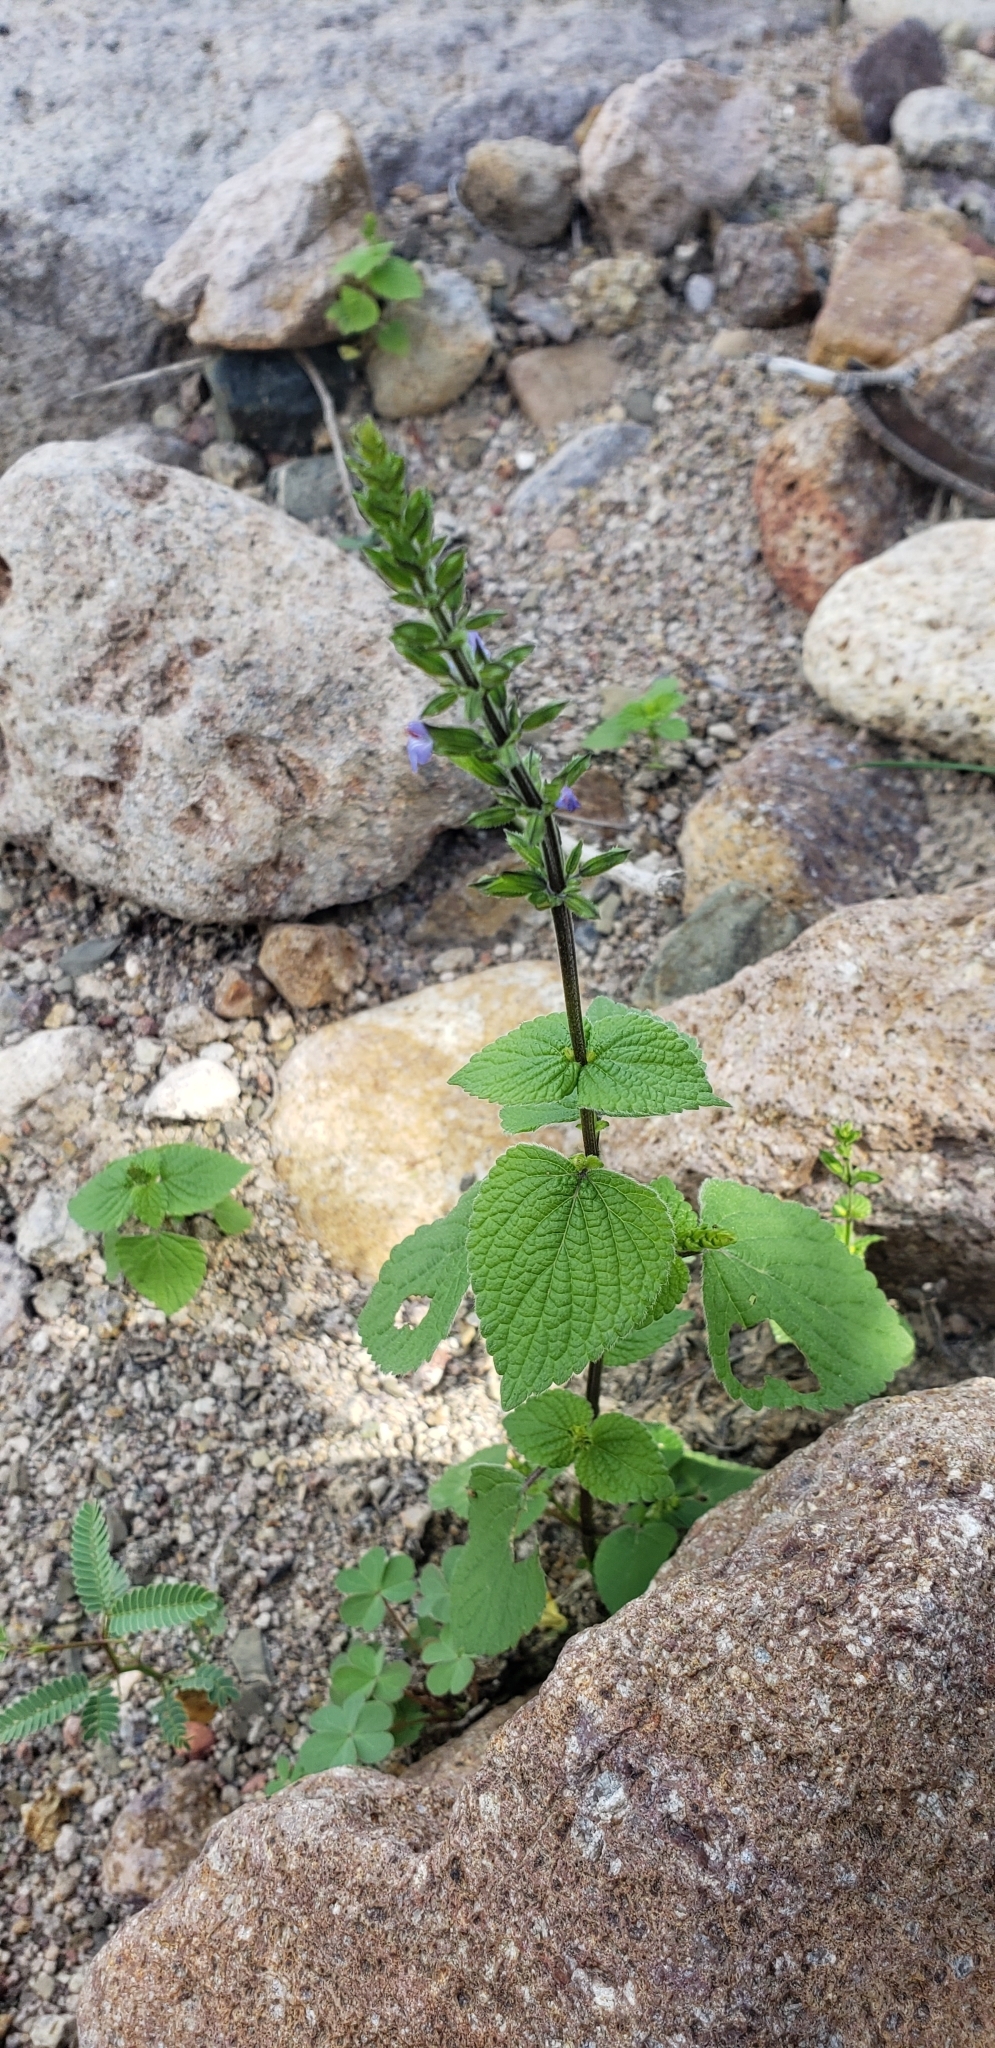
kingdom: Plantae
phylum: Tracheophyta
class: Magnoliopsida
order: Lamiales
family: Lamiaceae
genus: Salvia
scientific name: Salvia tiliifolia
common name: Lindenleaf sage
